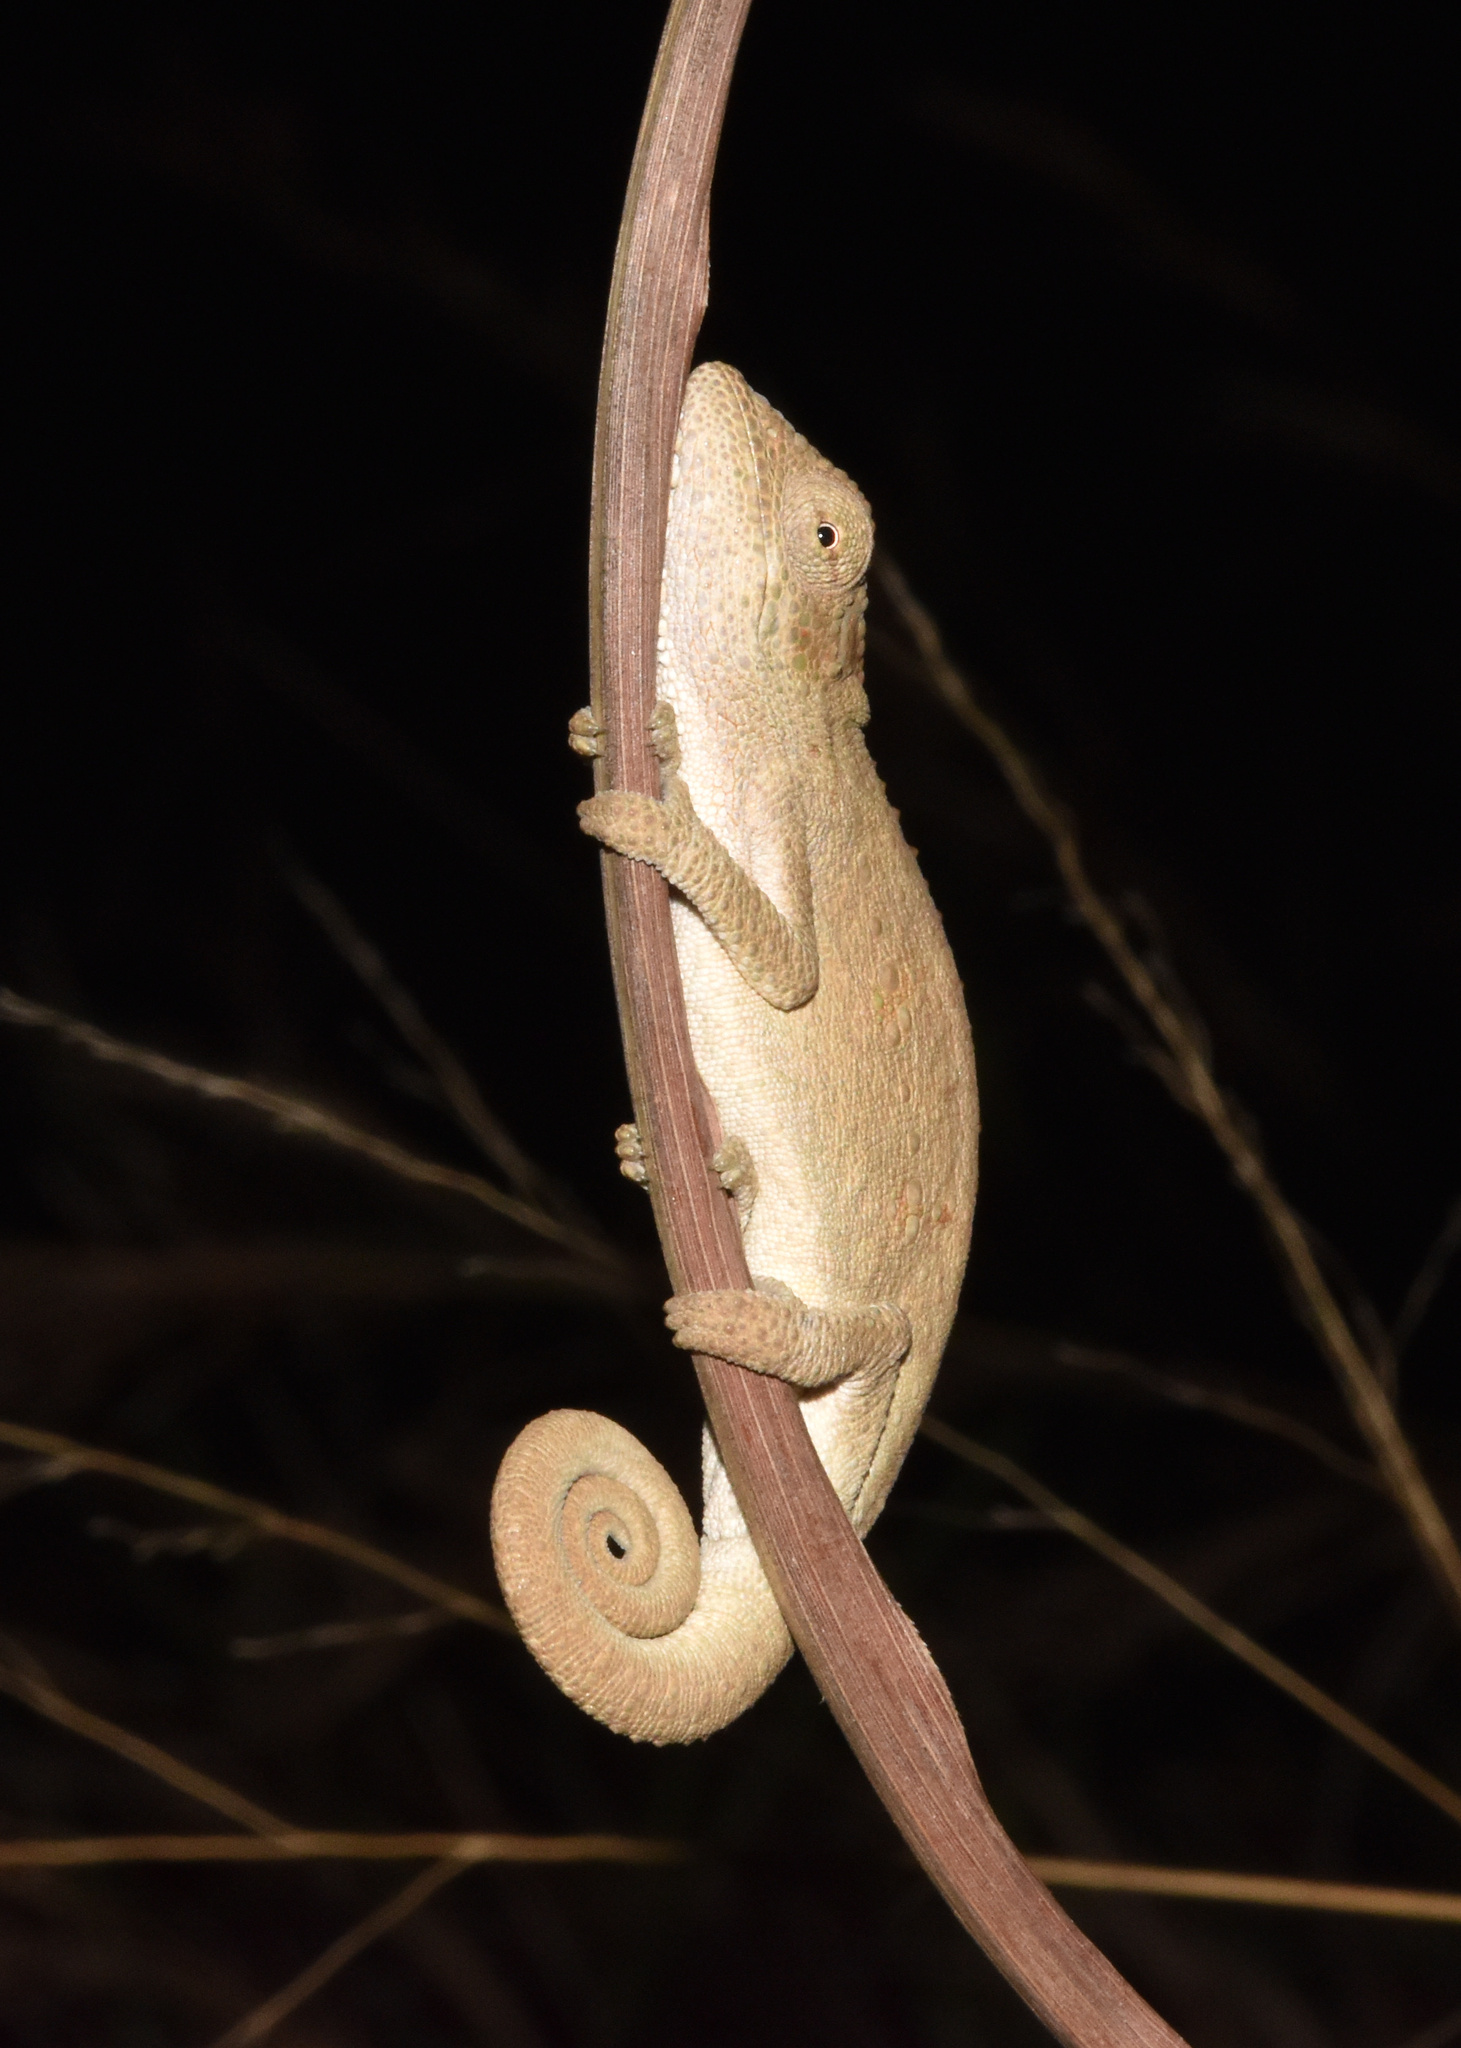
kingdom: Animalia
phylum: Chordata
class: Squamata
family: Chamaeleonidae
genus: Bradypodion
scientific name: Bradypodion melanocephalum
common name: Black-headed dwarf chameleon
